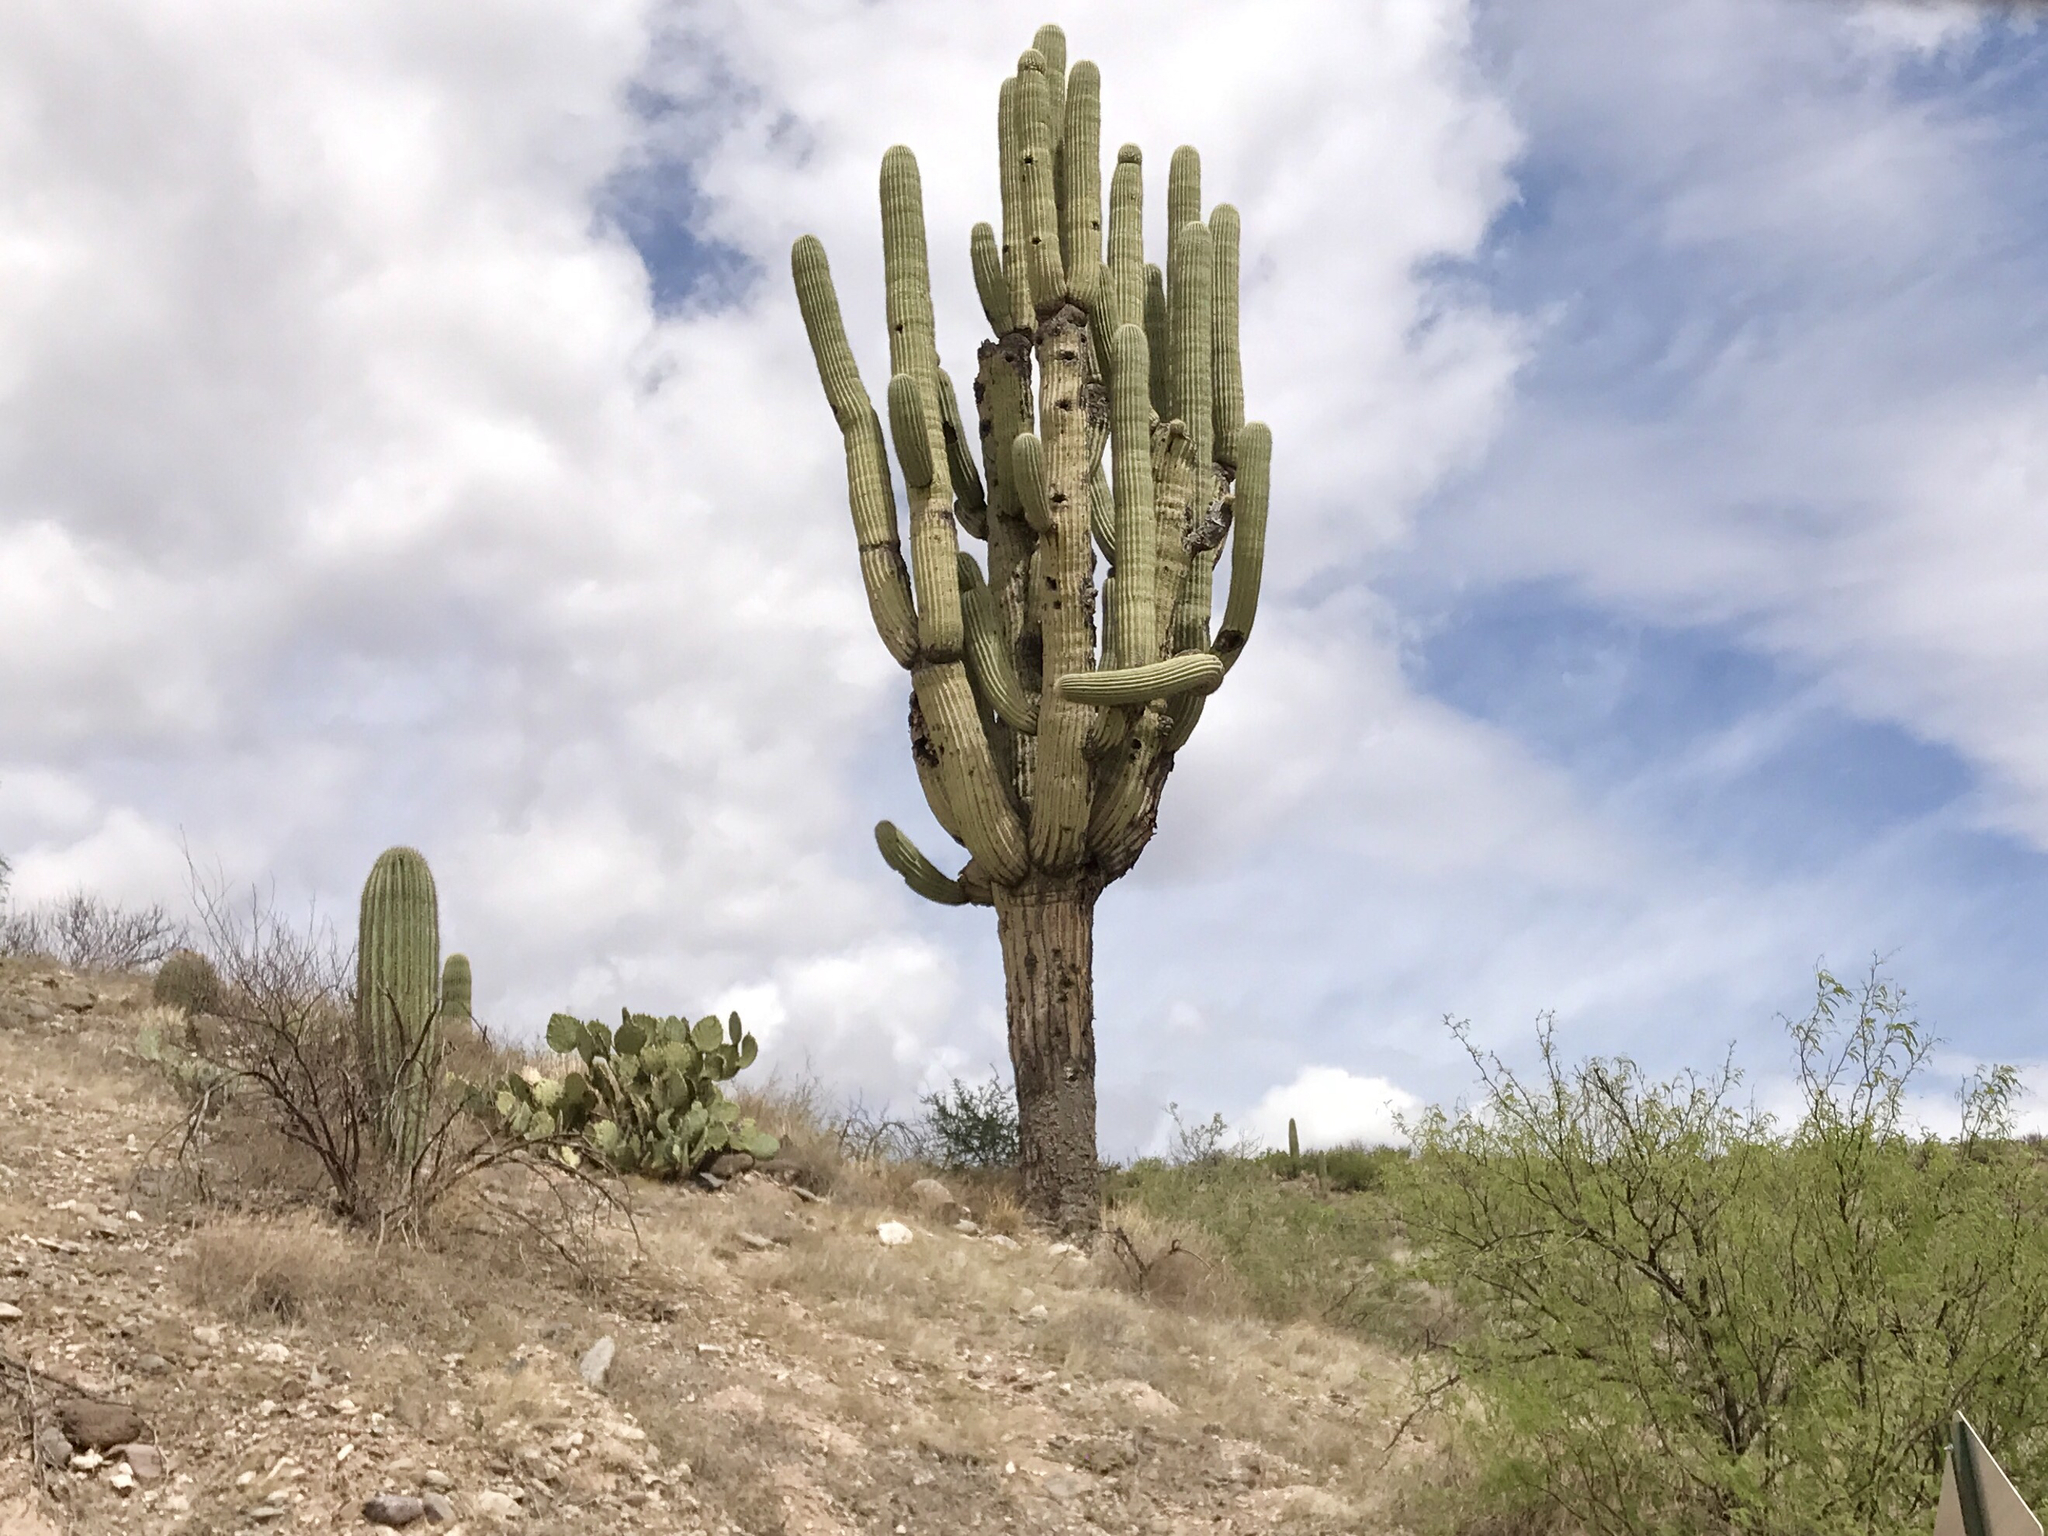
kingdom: Plantae
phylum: Tracheophyta
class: Magnoliopsida
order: Caryophyllales
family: Cactaceae
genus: Carnegiea
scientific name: Carnegiea gigantea
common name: Saguaro
